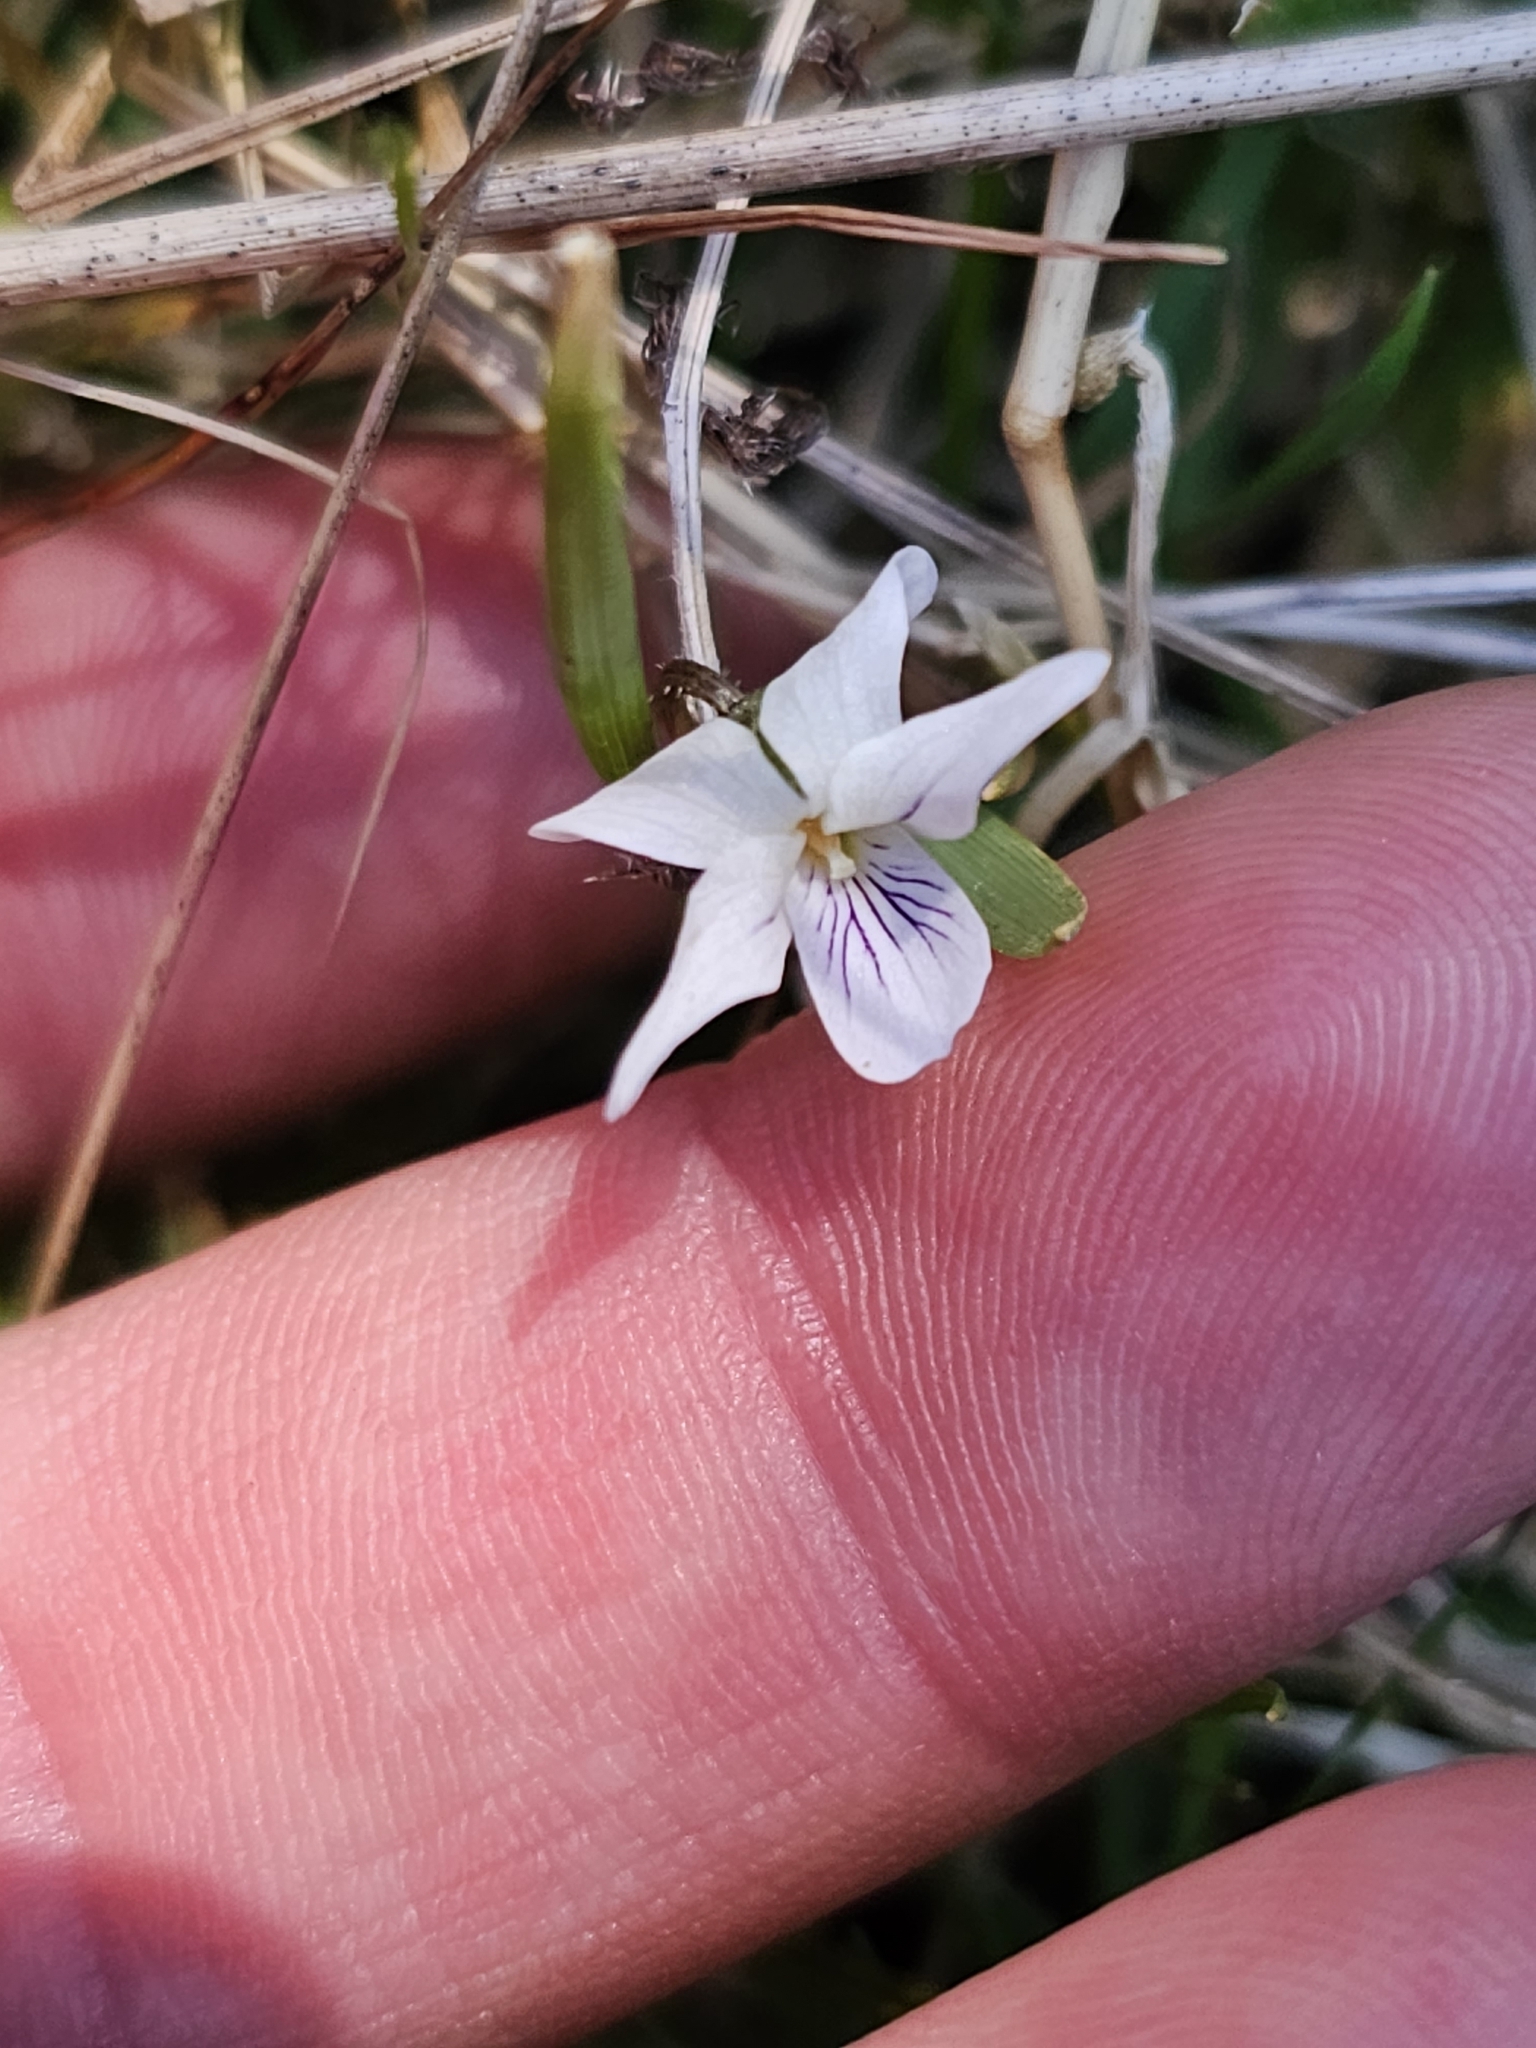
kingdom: Plantae
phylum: Tracheophyta
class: Magnoliopsida
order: Malpighiales
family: Violaceae
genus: Viola
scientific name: Viola cunninghamii
